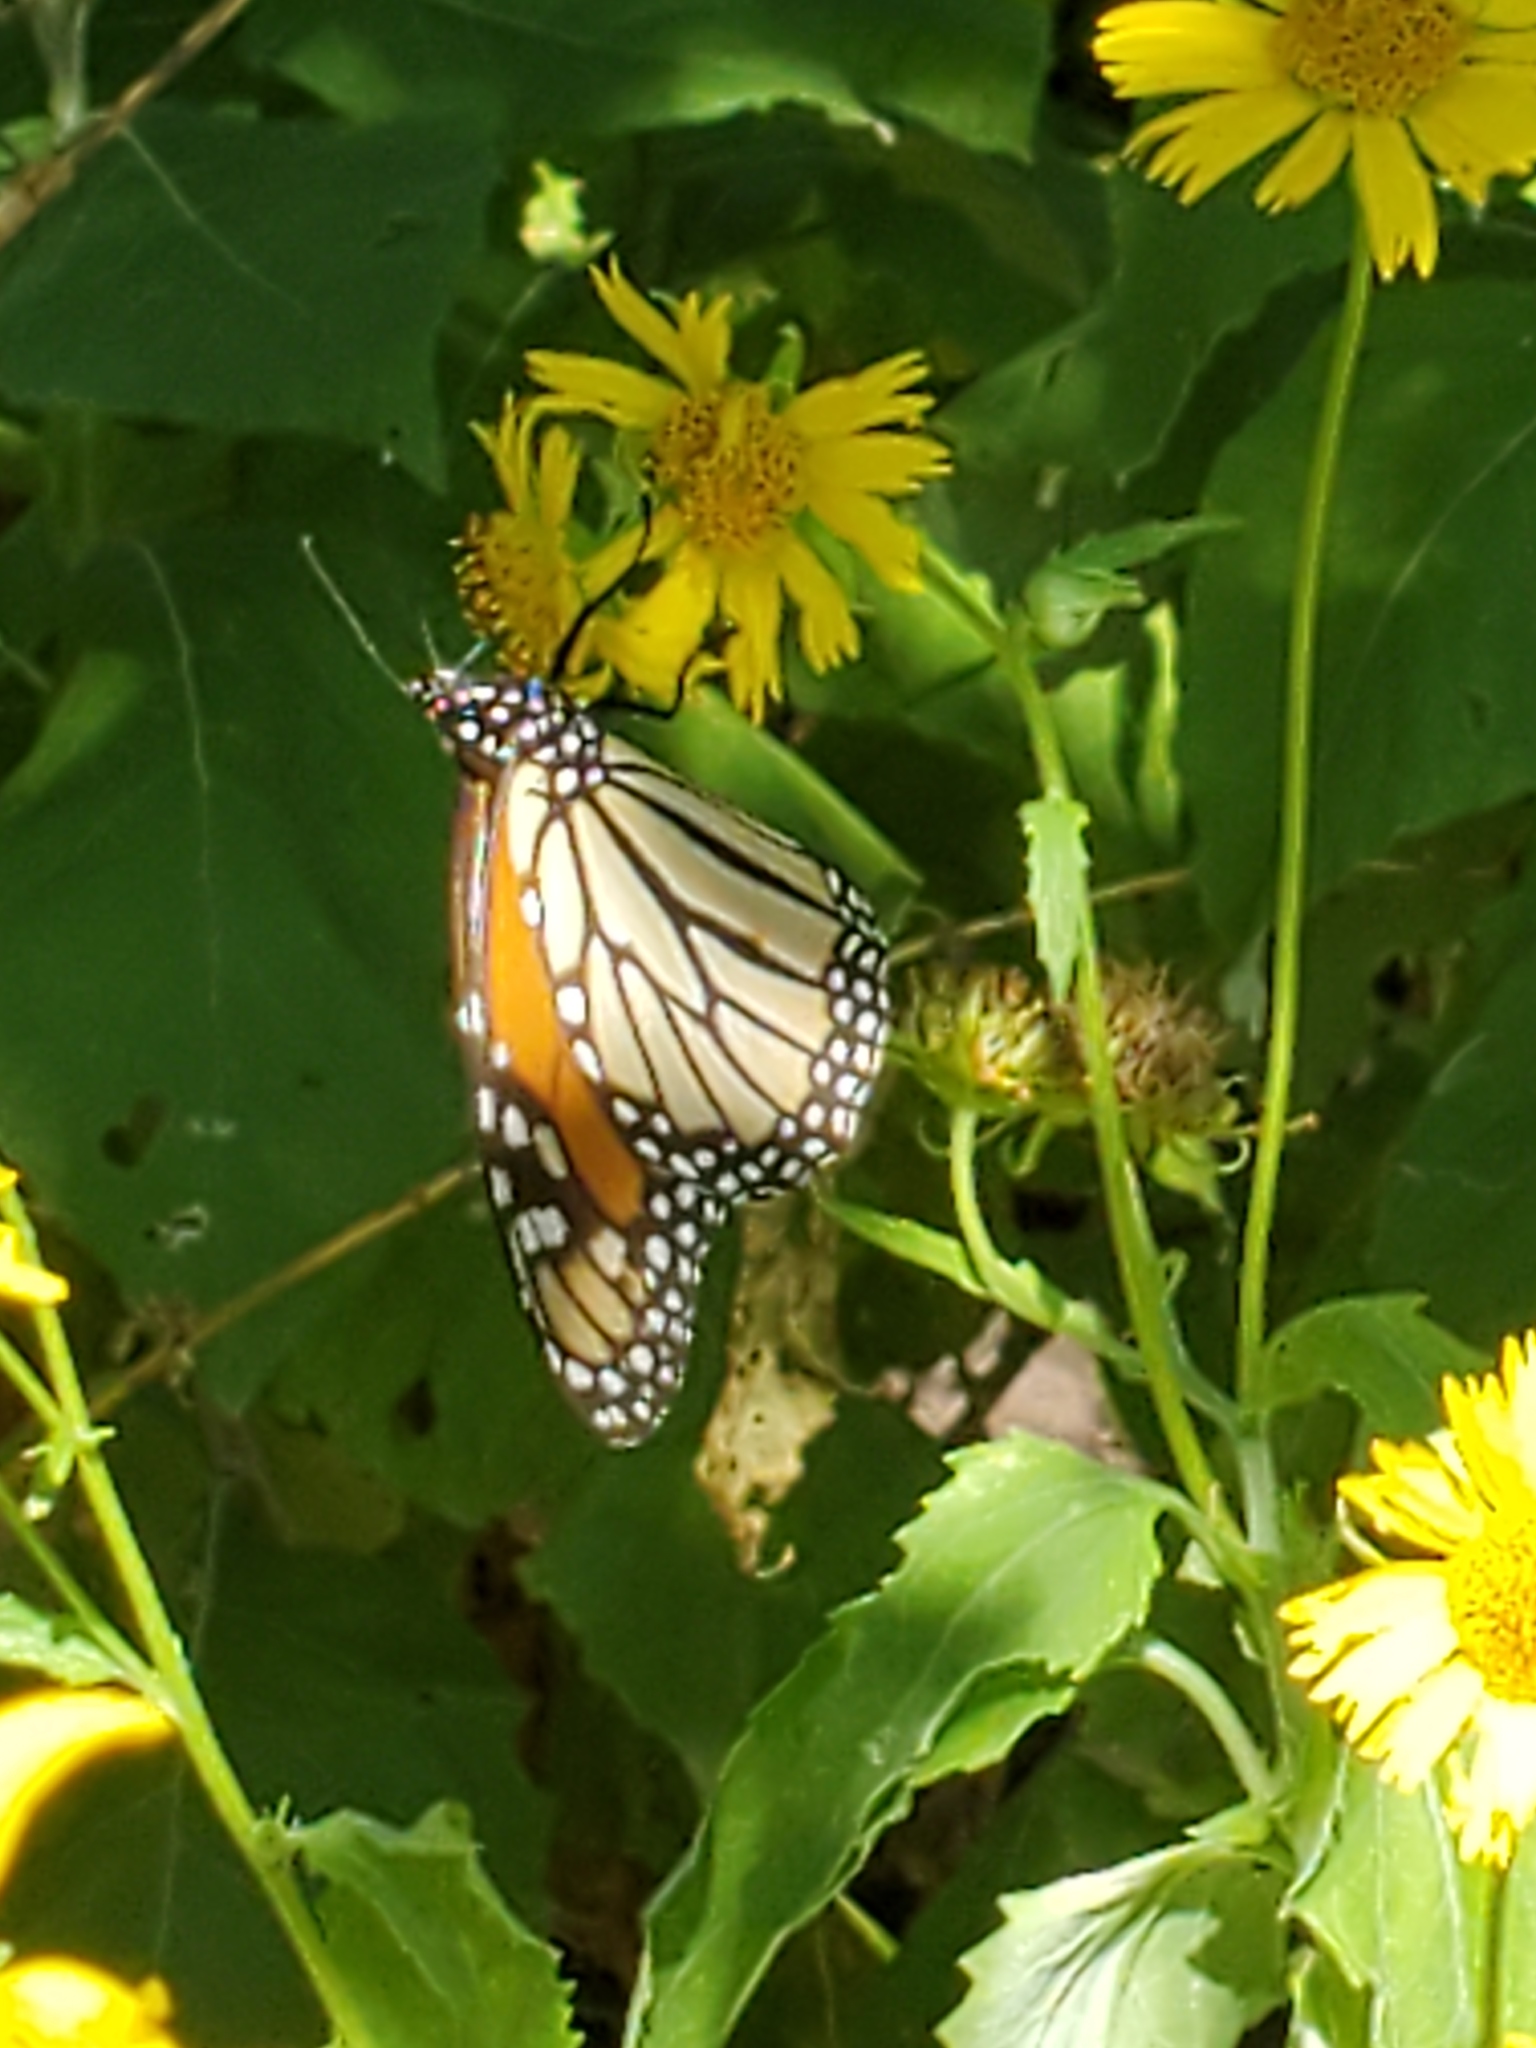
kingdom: Animalia
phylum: Arthropoda
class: Insecta
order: Lepidoptera
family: Nymphalidae
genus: Danaus
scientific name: Danaus plexippus
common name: Monarch
